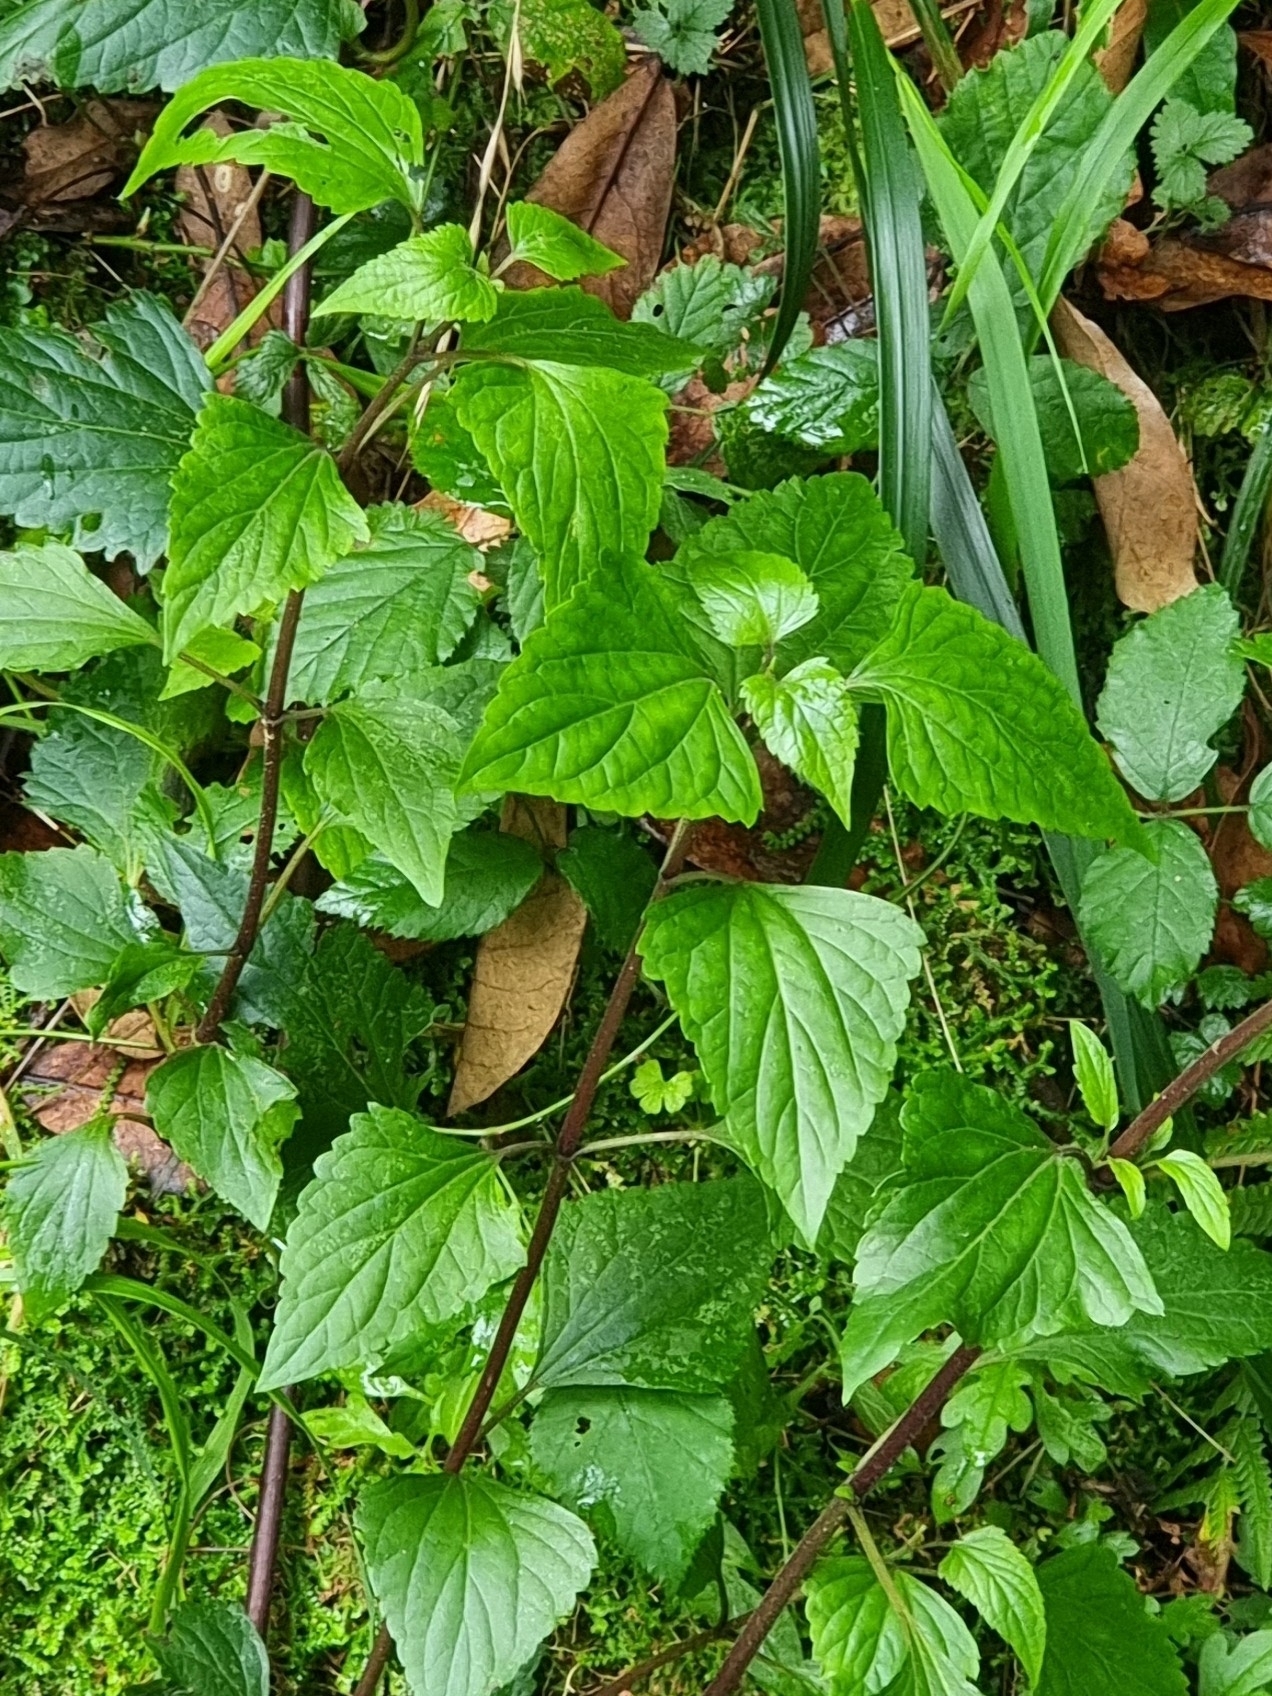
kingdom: Plantae
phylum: Tracheophyta
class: Magnoliopsida
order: Asterales
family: Asteraceae
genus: Ageratina
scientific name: Ageratina adenophora
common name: Sticky snakeroot
